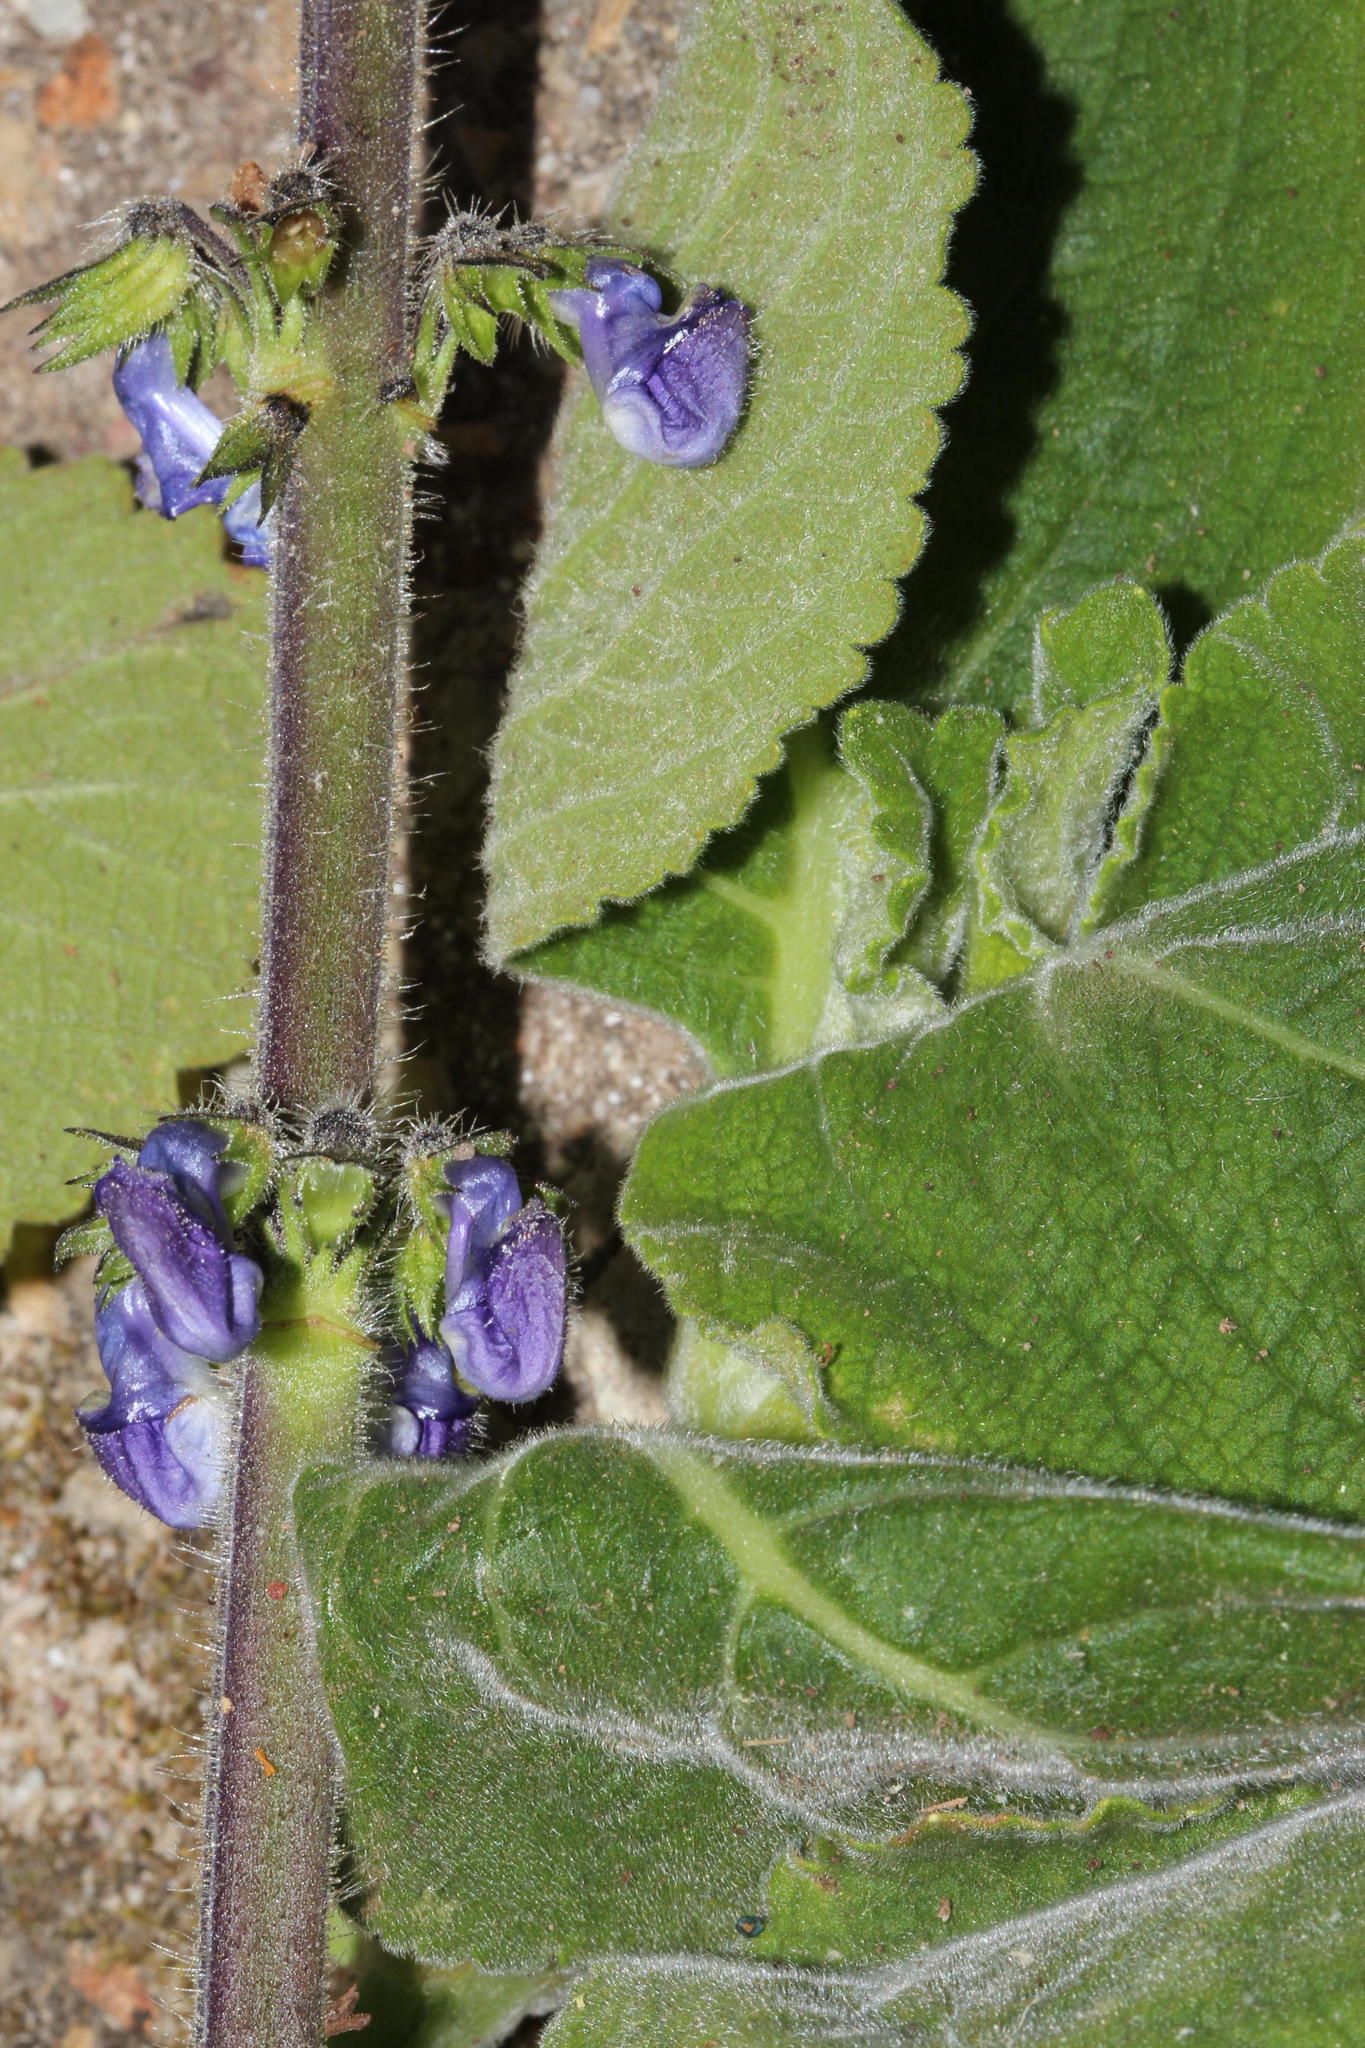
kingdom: Plantae
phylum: Tracheophyta
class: Magnoliopsida
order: Lamiales
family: Lamiaceae
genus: Coleus
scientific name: Coleus barbatus
